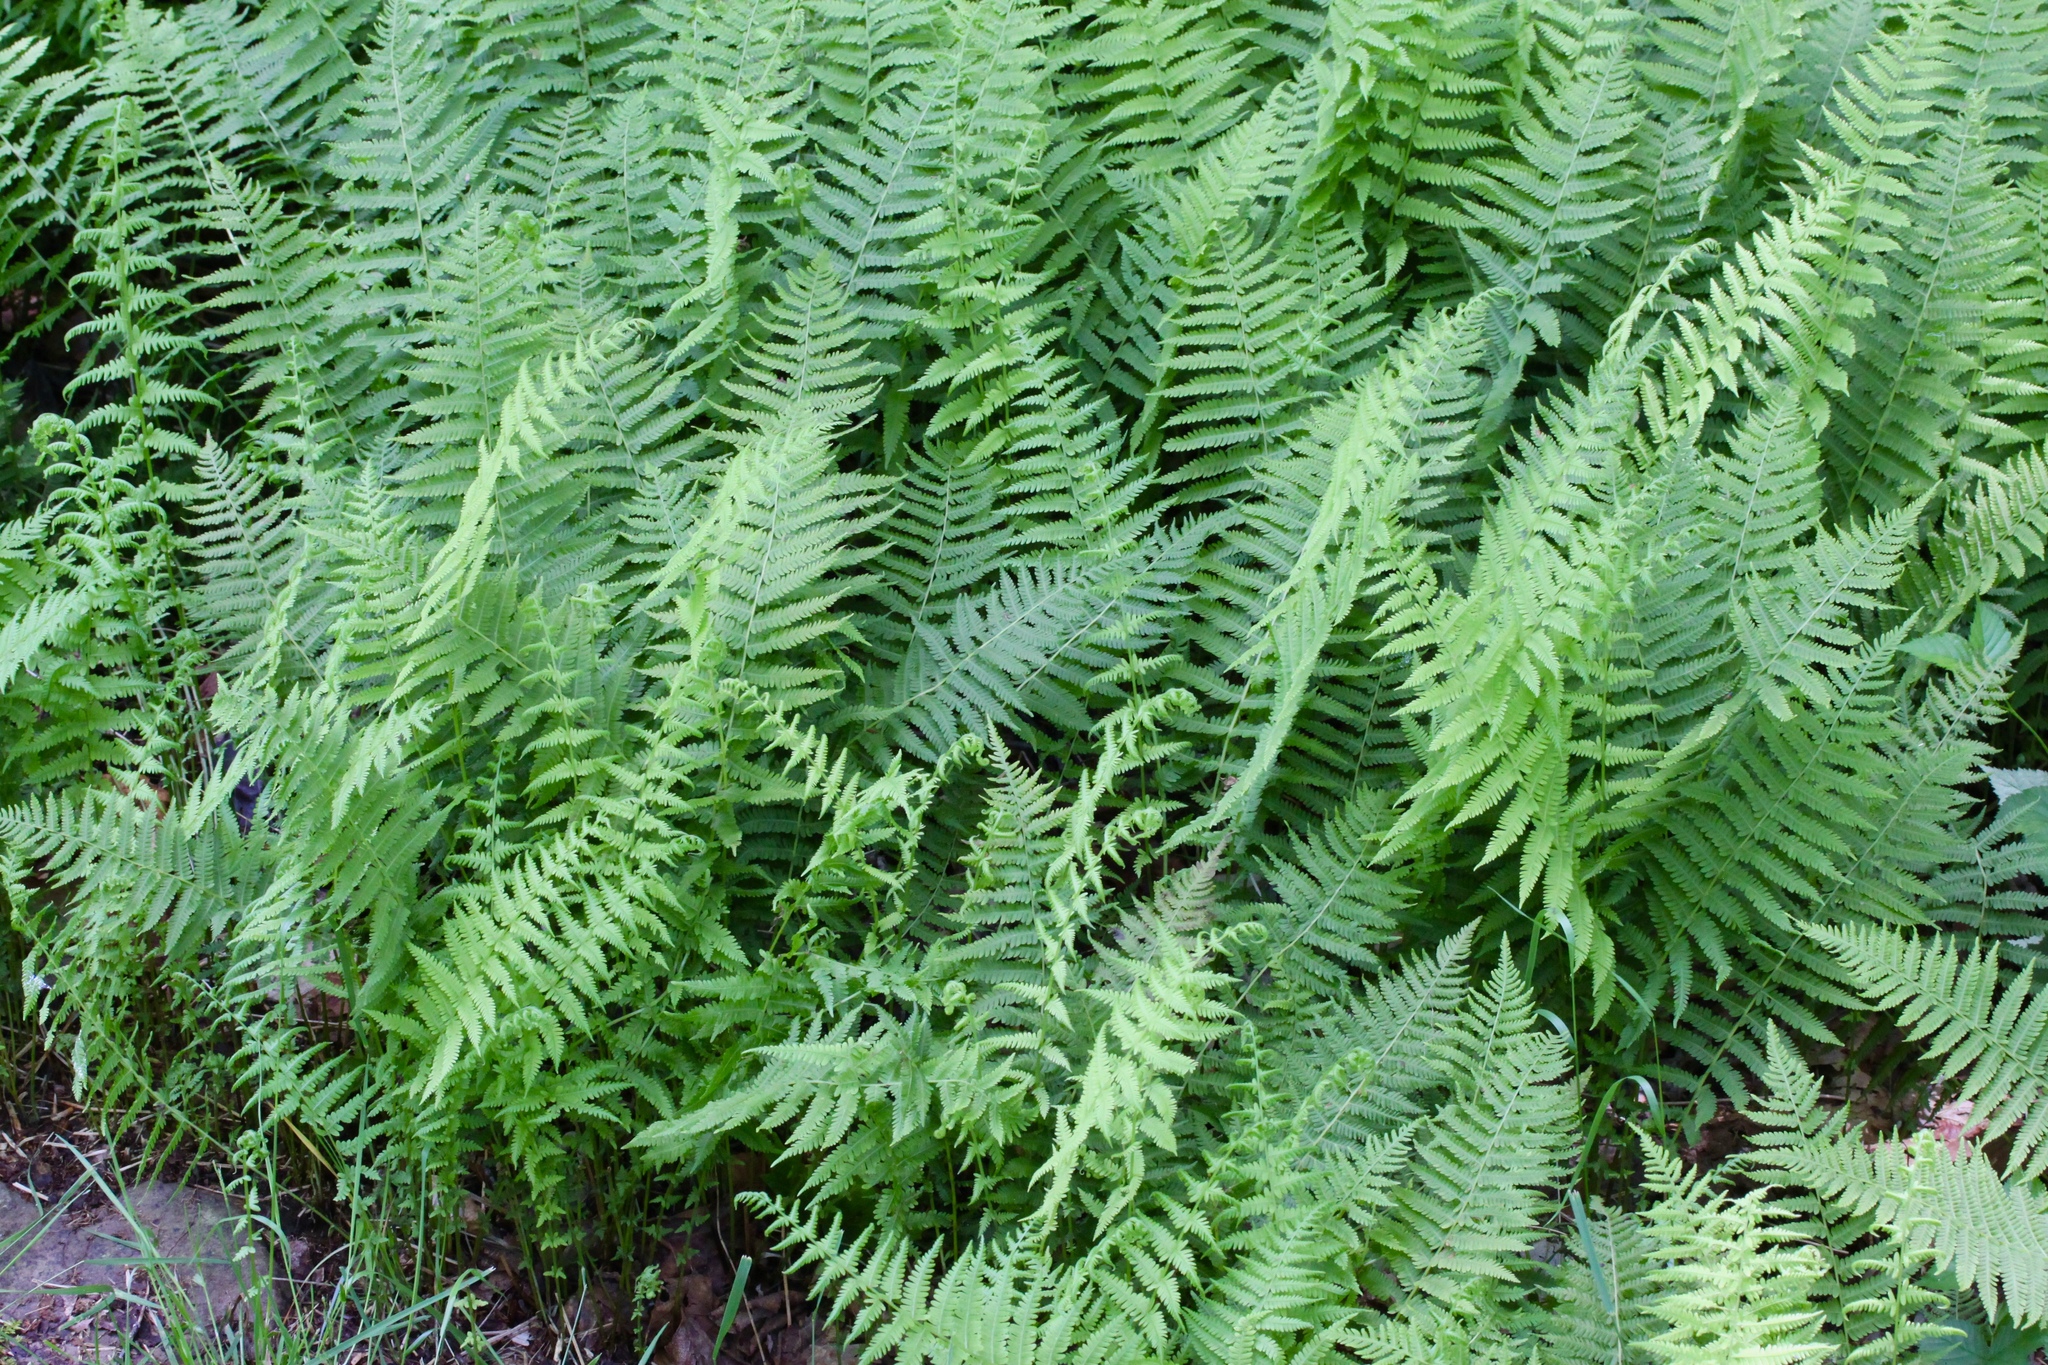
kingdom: Plantae
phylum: Tracheophyta
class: Polypodiopsida
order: Polypodiales
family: Dryopteridaceae
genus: Dryopteris
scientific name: Dryopteris intermedia
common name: Evergreen wood fern
